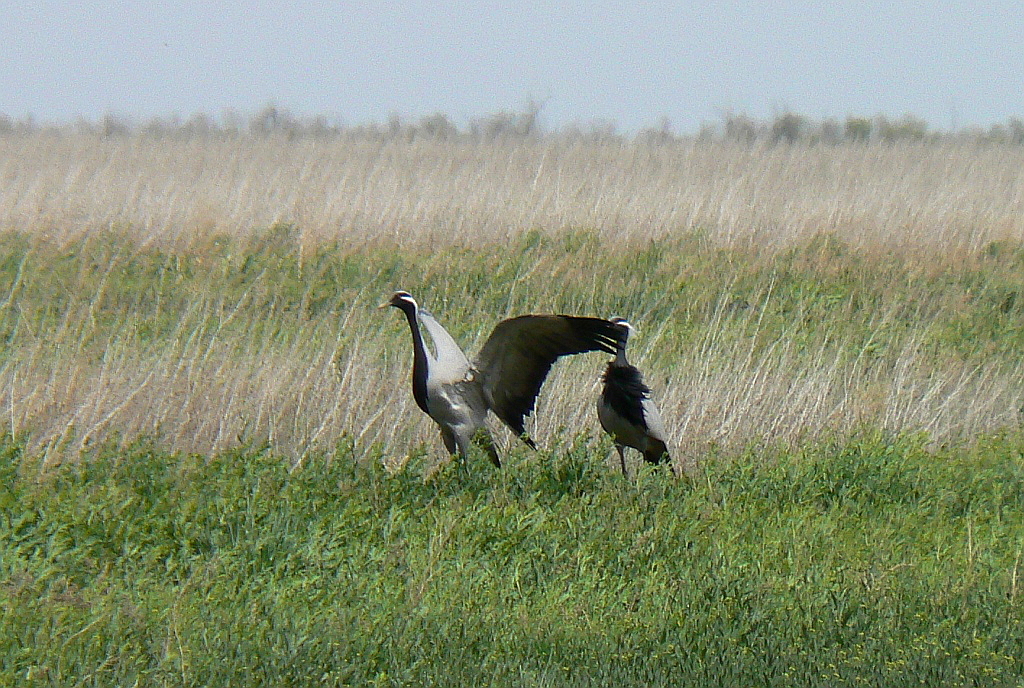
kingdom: Animalia
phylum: Chordata
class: Aves
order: Gruiformes
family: Gruidae
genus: Anthropoides
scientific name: Anthropoides virgo
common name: Demoiselle crane
